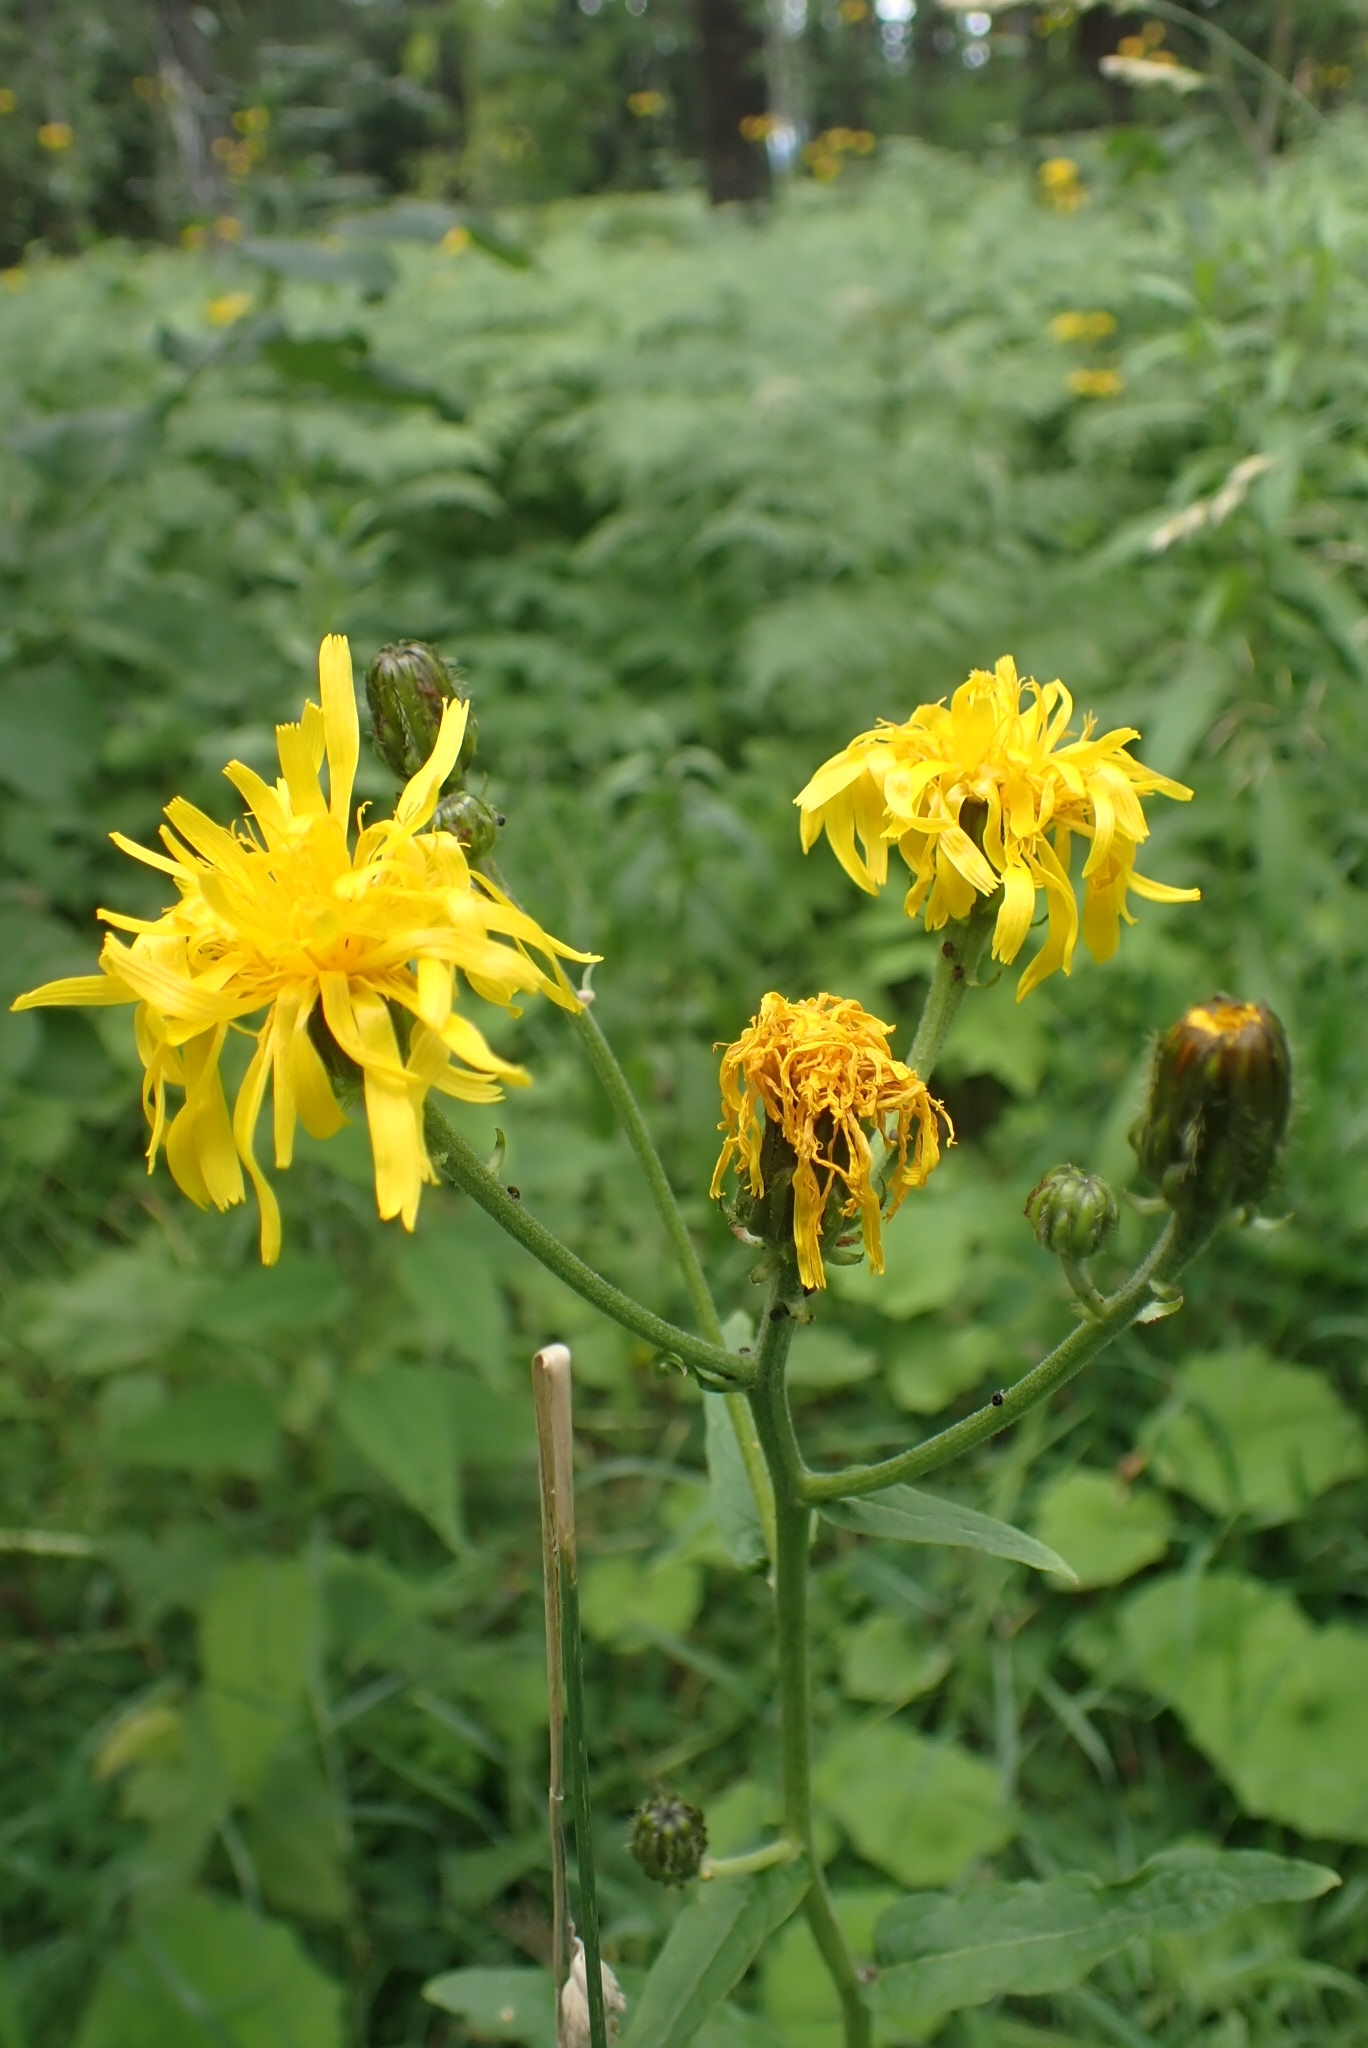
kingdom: Plantae
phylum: Tracheophyta
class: Magnoliopsida
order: Asterales
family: Asteraceae
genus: Crepis
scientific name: Crepis sibirica
